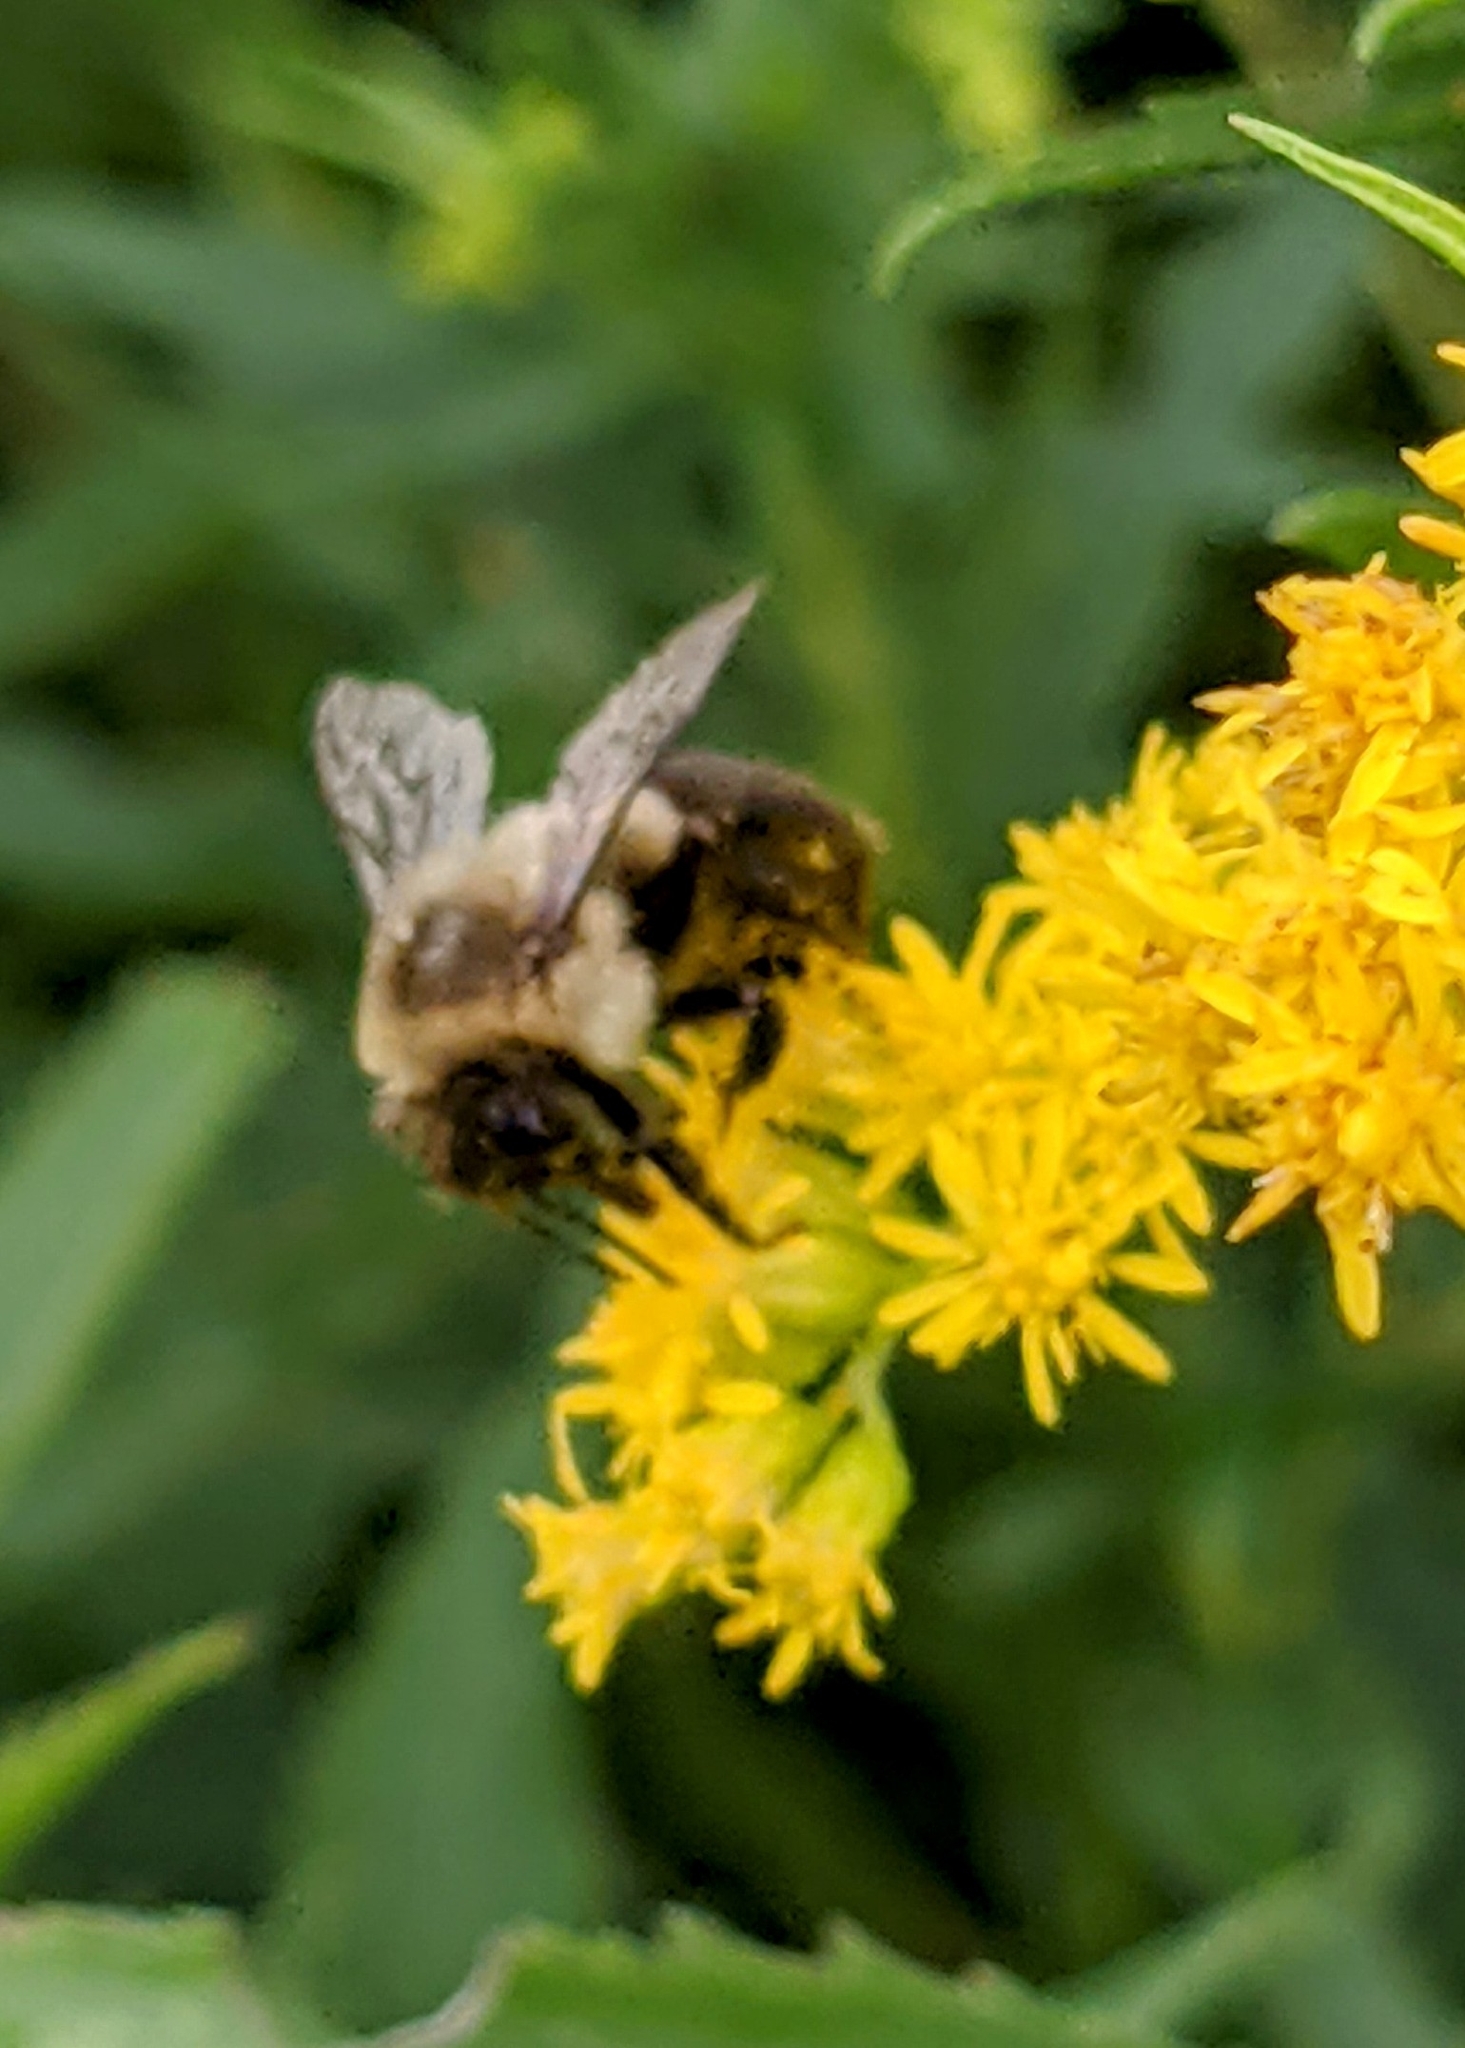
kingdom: Animalia
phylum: Arthropoda
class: Insecta
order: Hymenoptera
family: Apidae
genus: Bombus
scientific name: Bombus impatiens
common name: Common eastern bumble bee
